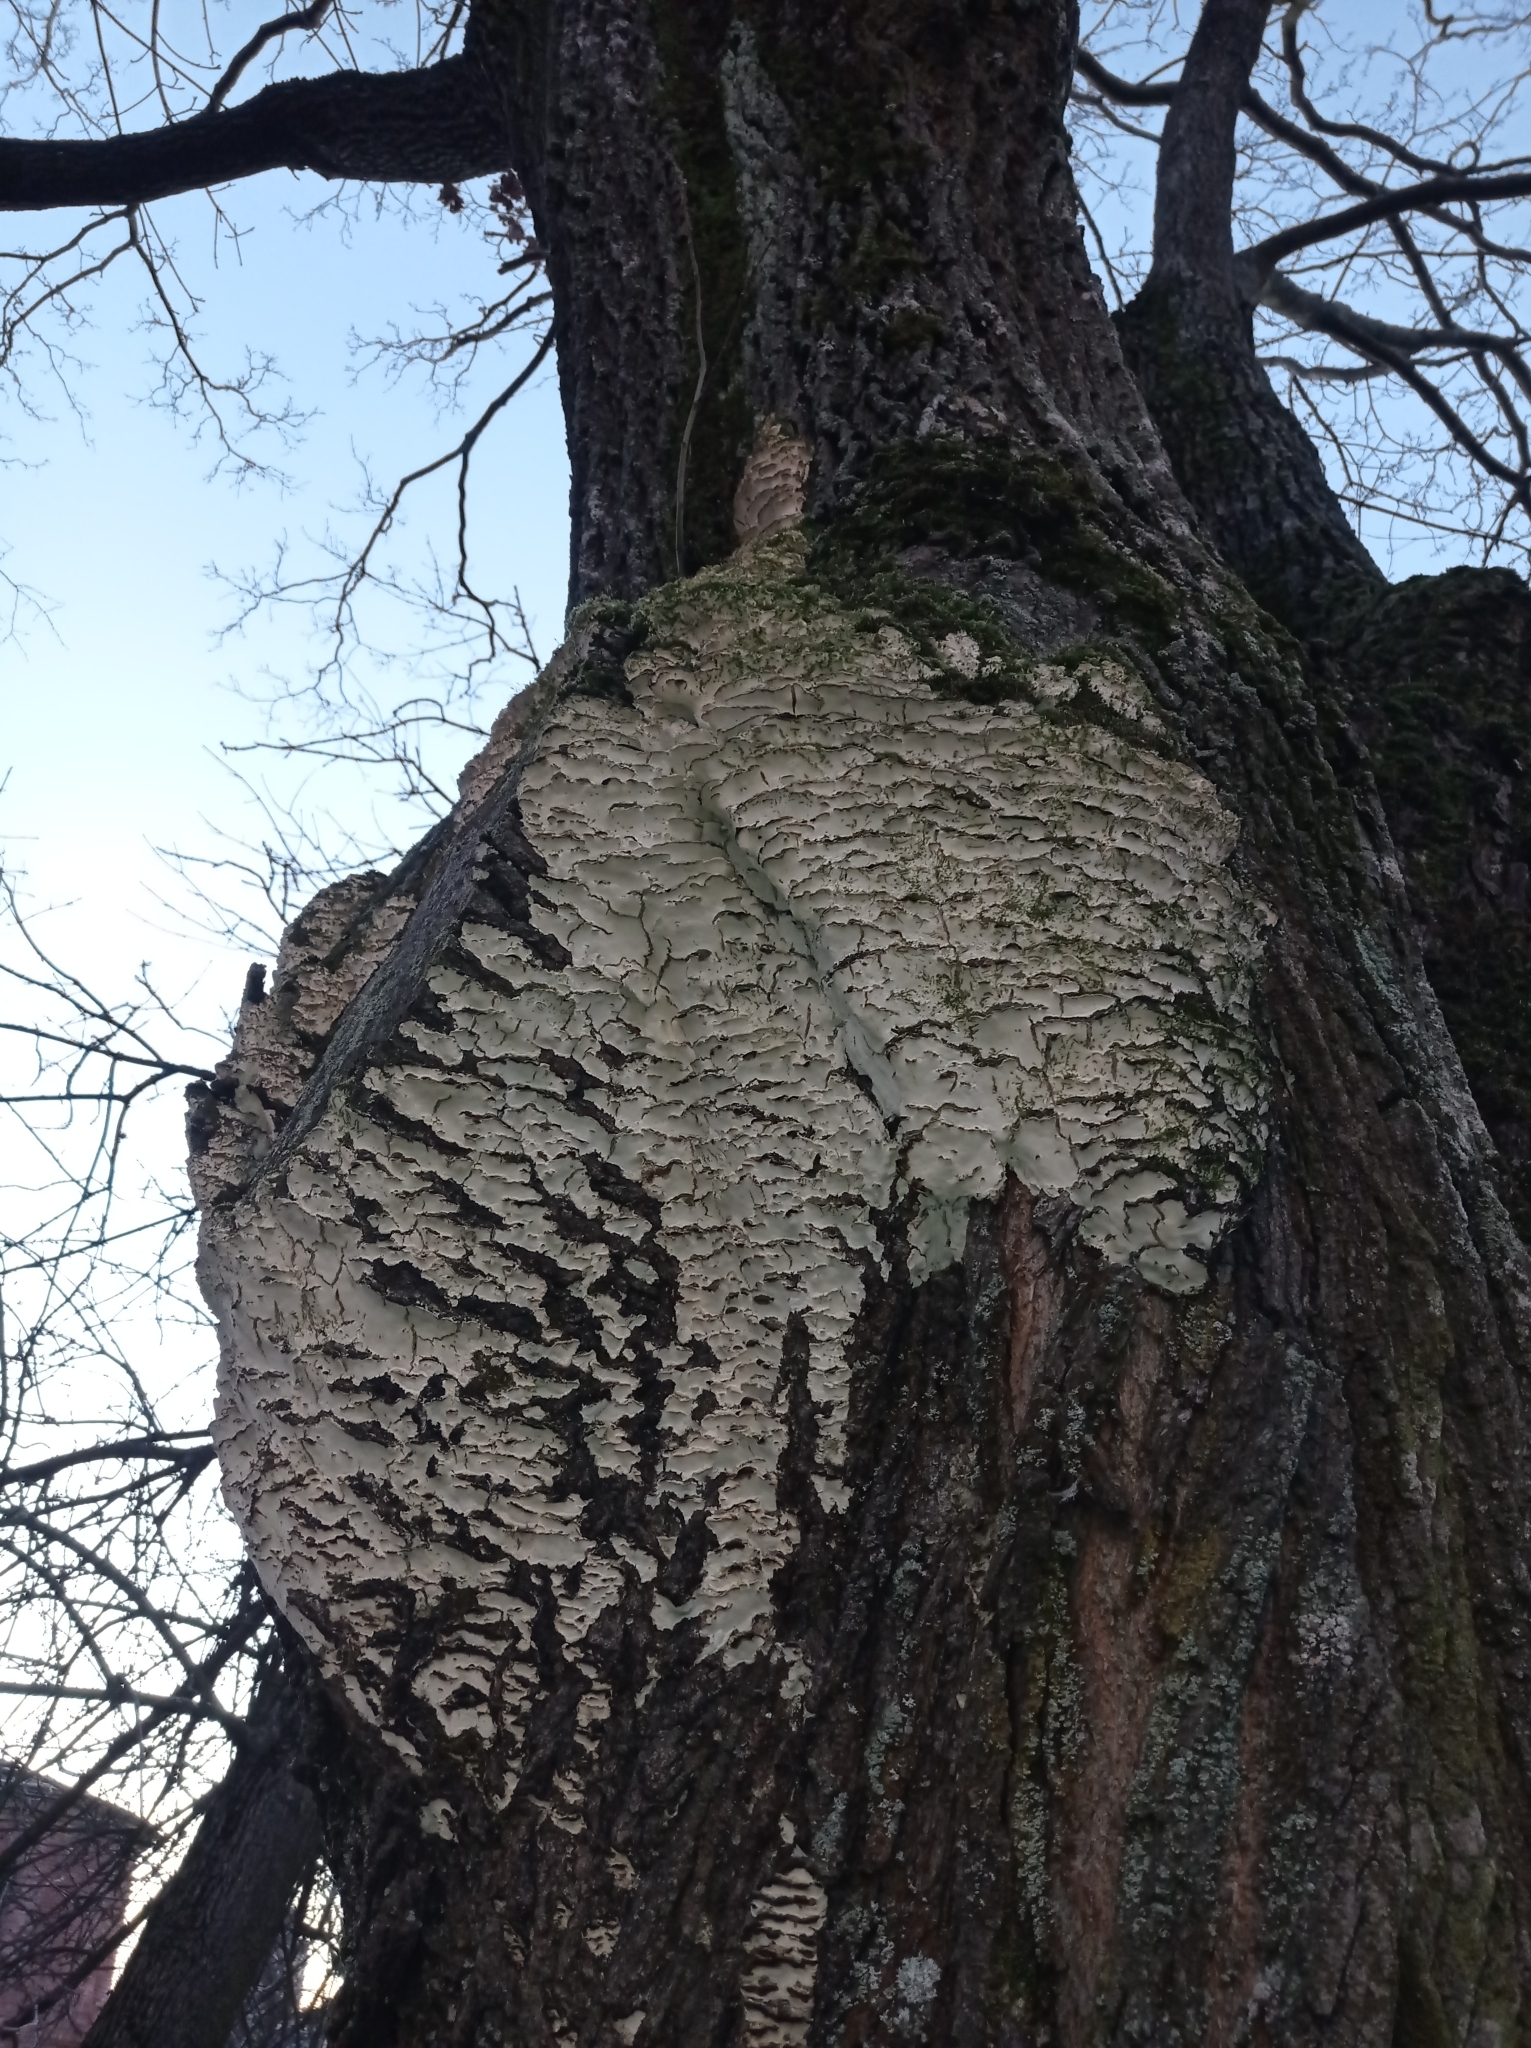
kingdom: Fungi
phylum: Basidiomycota
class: Agaricomycetes
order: Hymenochaetales
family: Oxyporaceae
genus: Oxyporus
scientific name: Oxyporus populinus
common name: Poplar bracket
